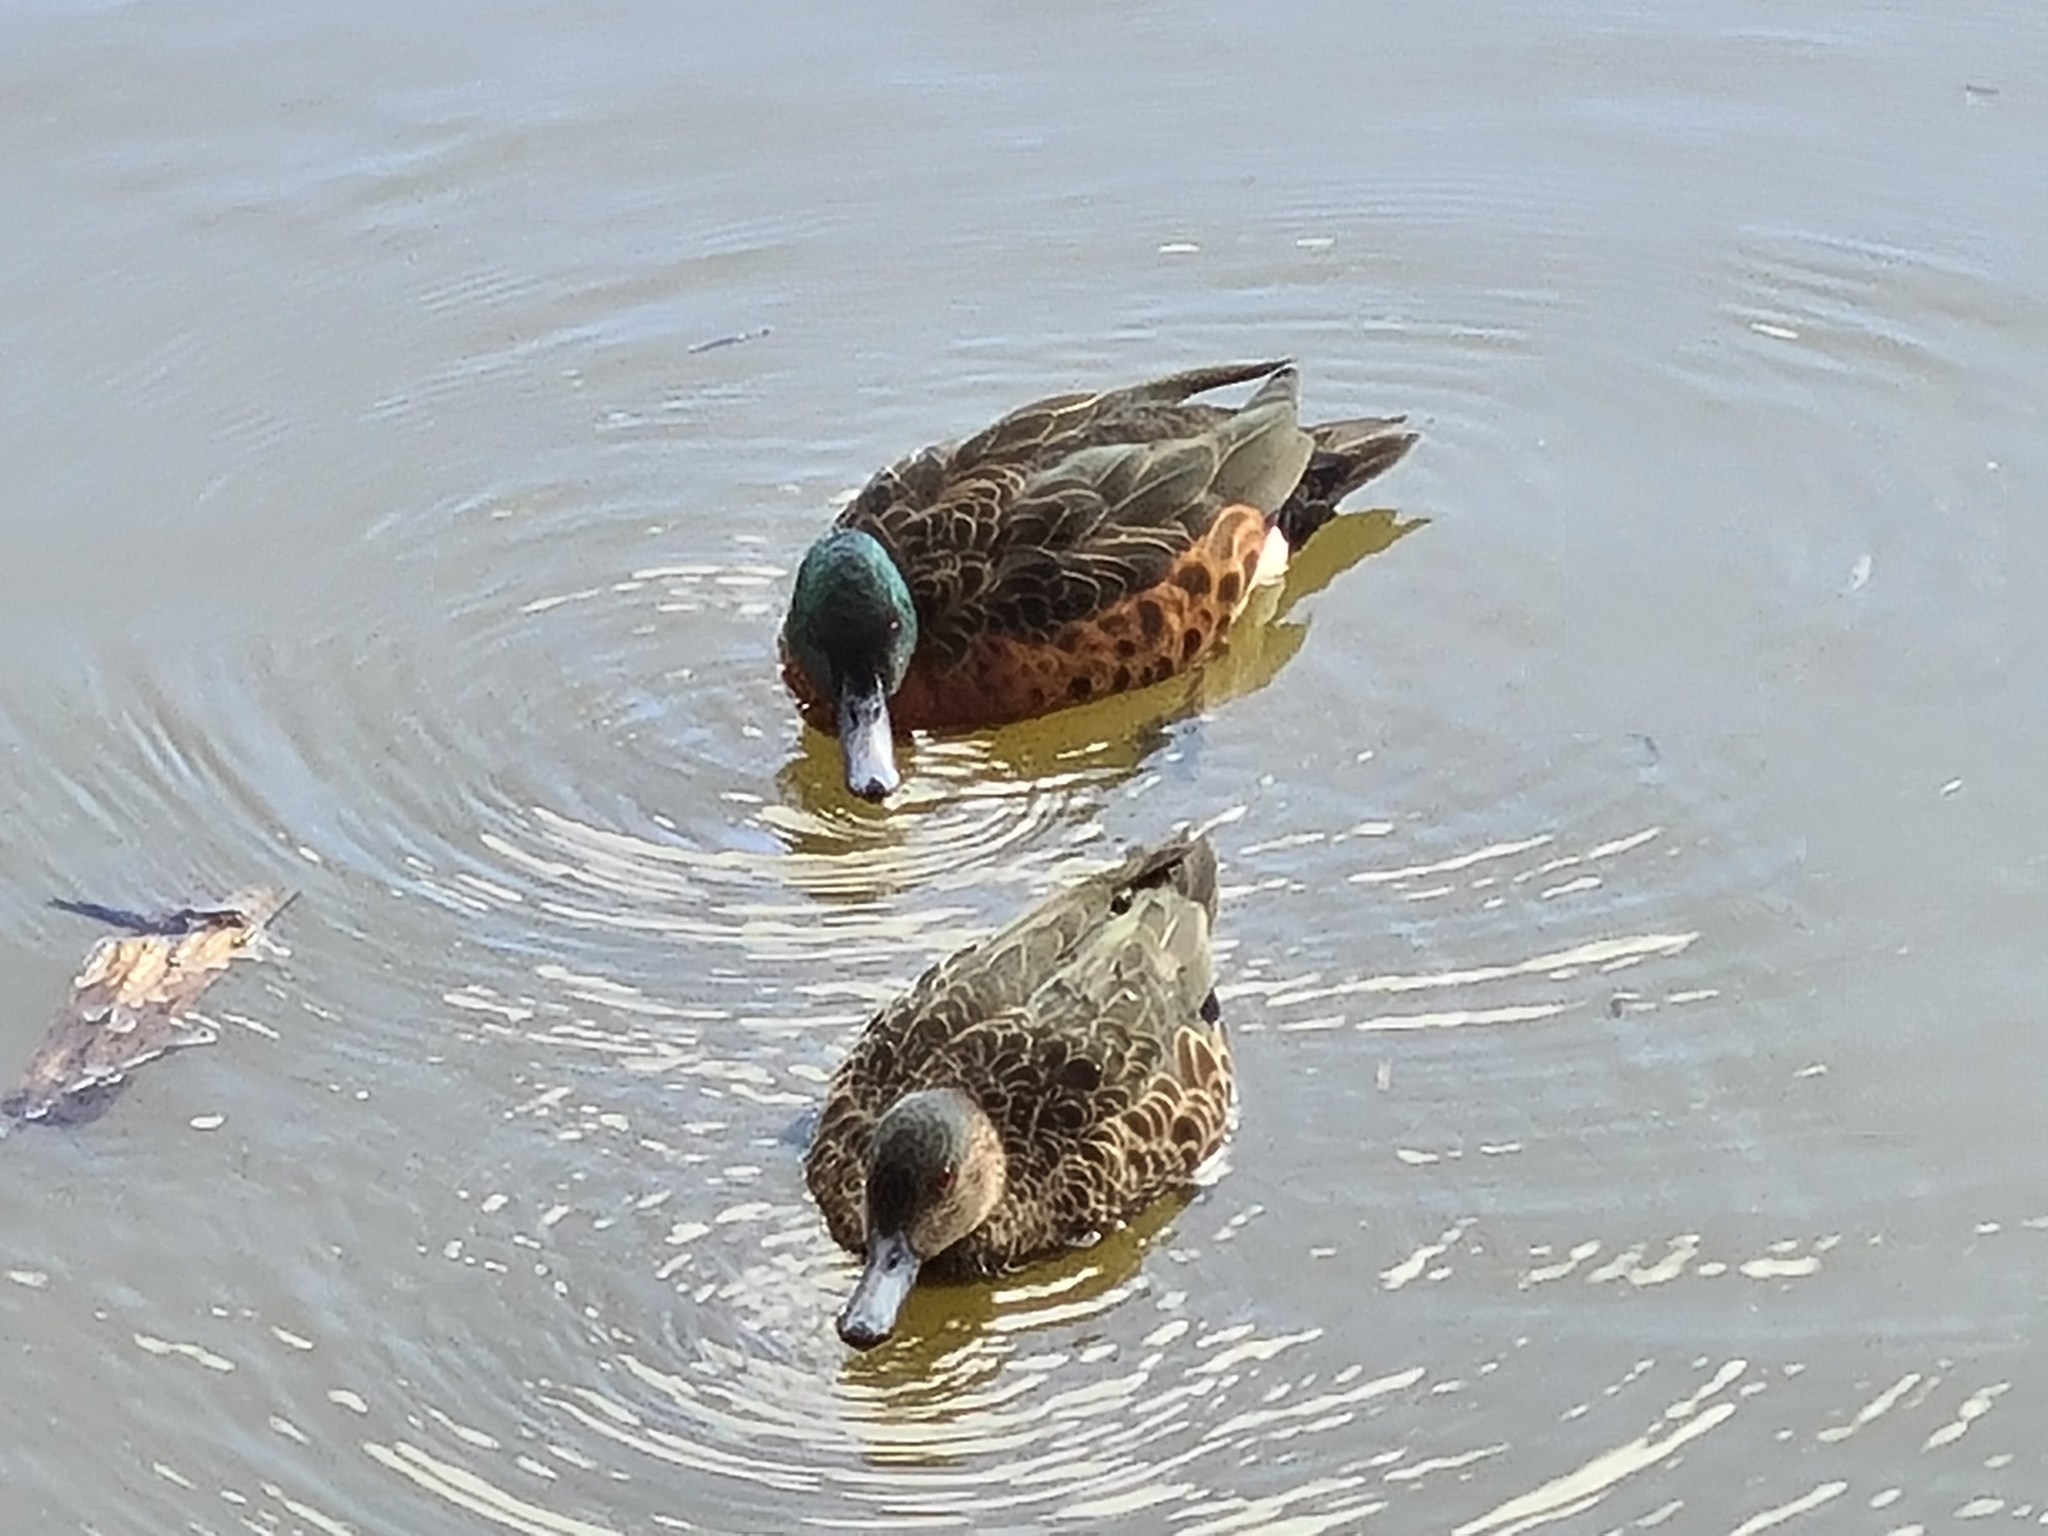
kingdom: Animalia
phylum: Chordata
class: Aves
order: Anseriformes
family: Anatidae
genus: Anas
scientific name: Anas castanea
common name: Chestnut teal
